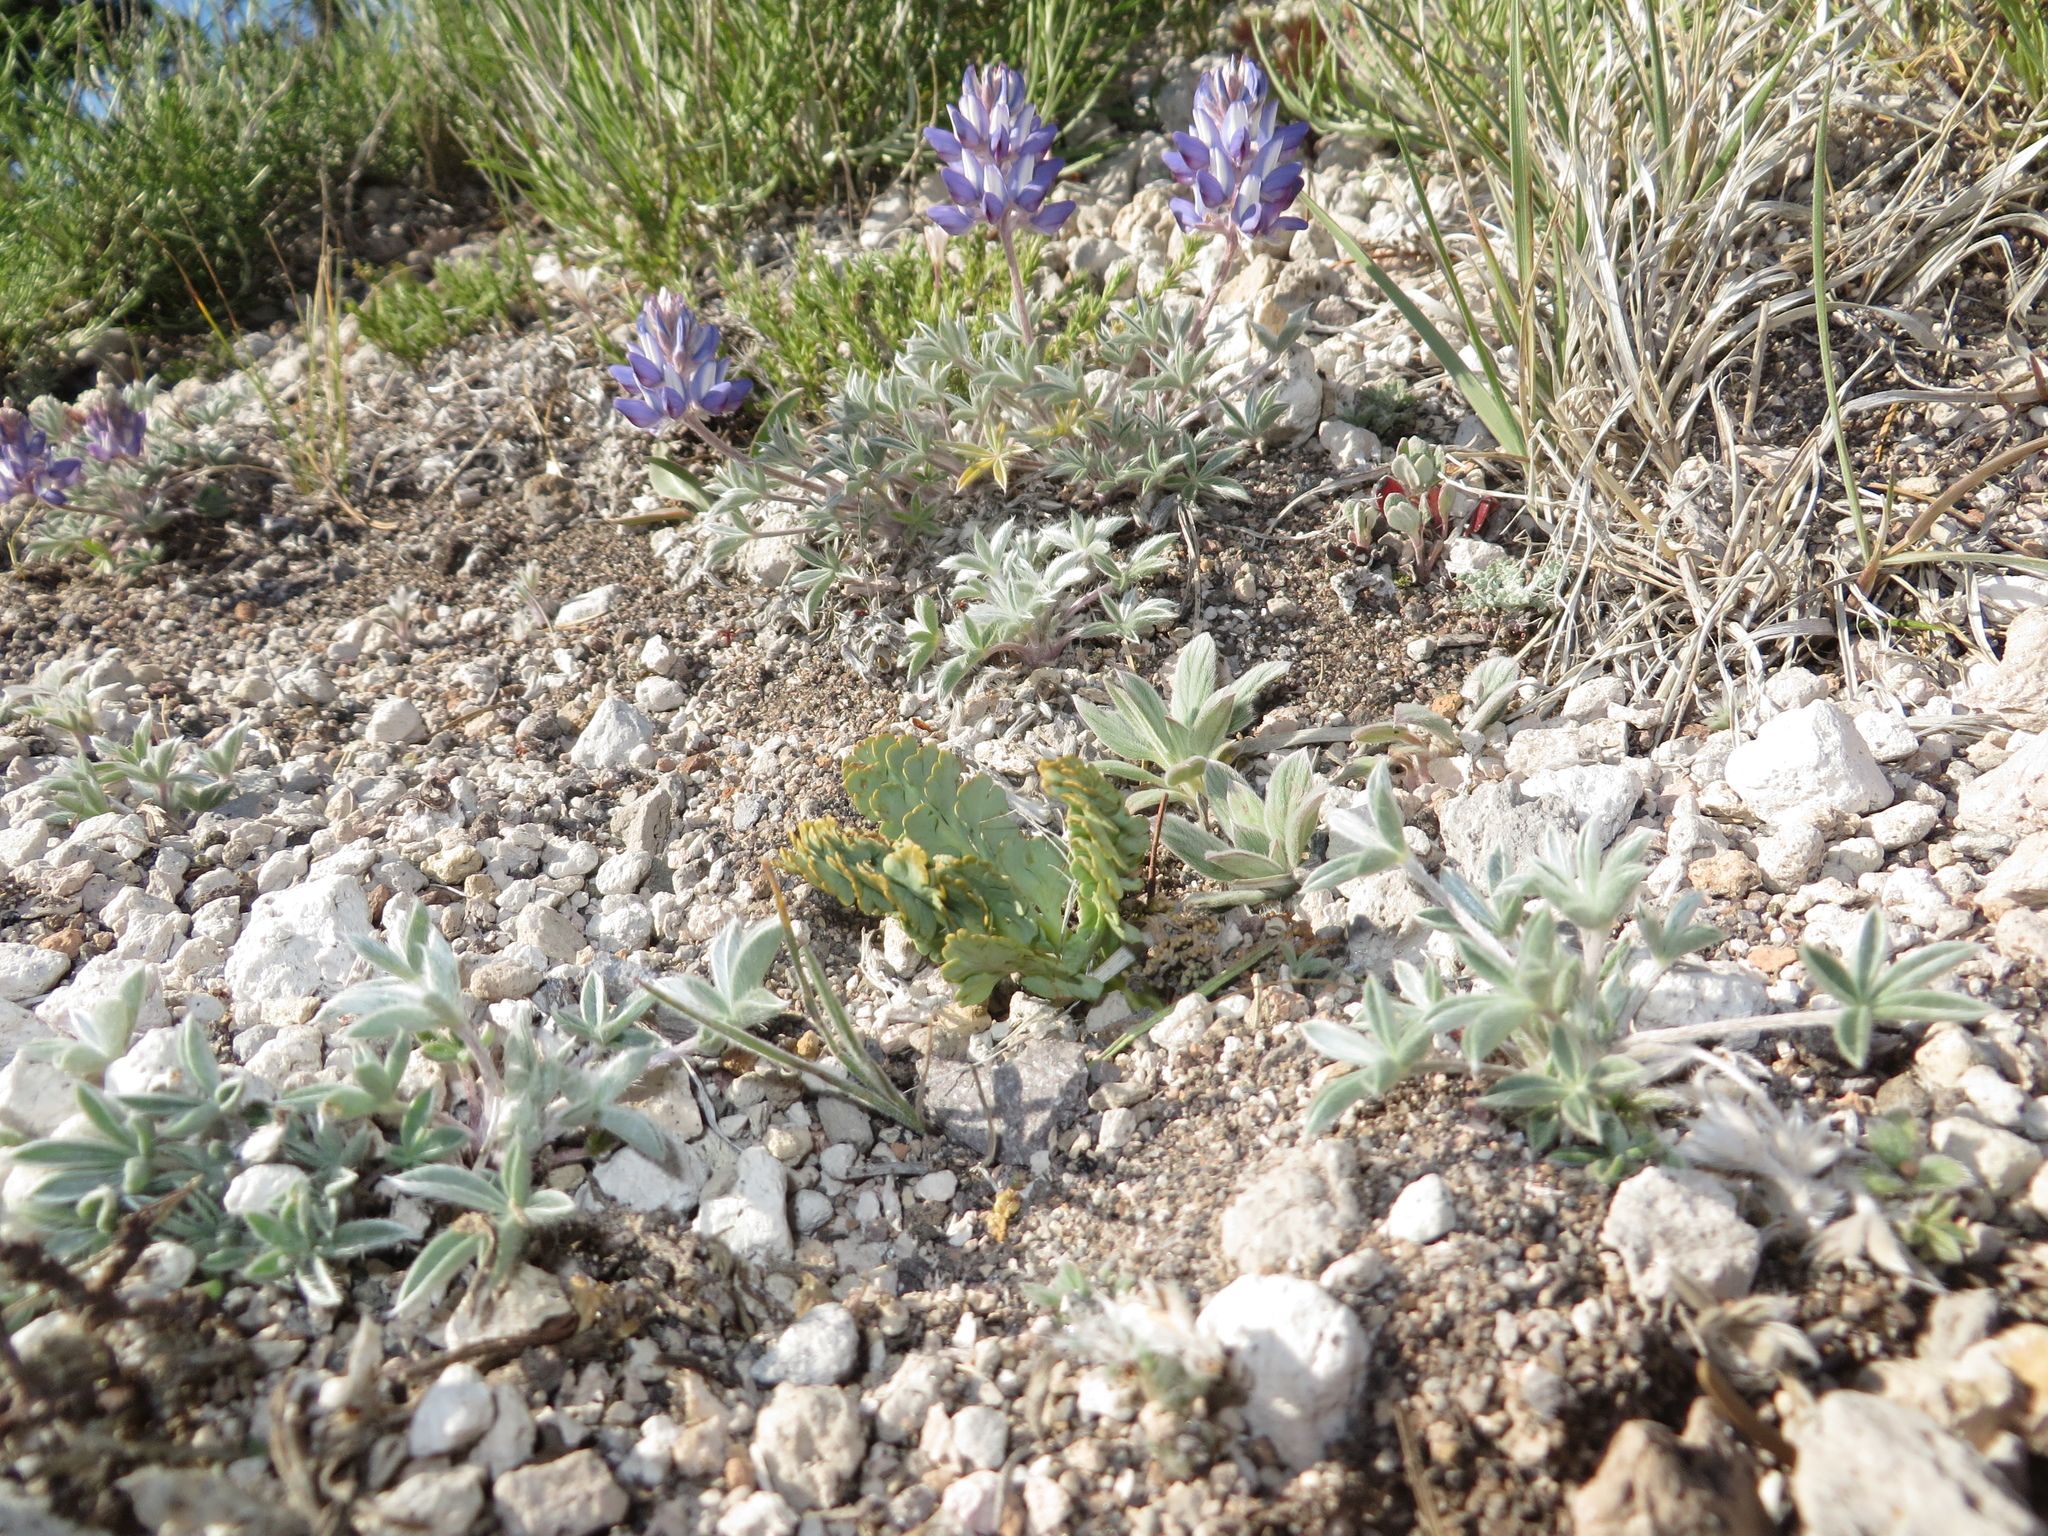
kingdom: Plantae
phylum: Tracheophyta
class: Polypodiopsida
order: Ophioglossales
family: Ophioglossaceae
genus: Botrychium
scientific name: Botrychium pumicola
